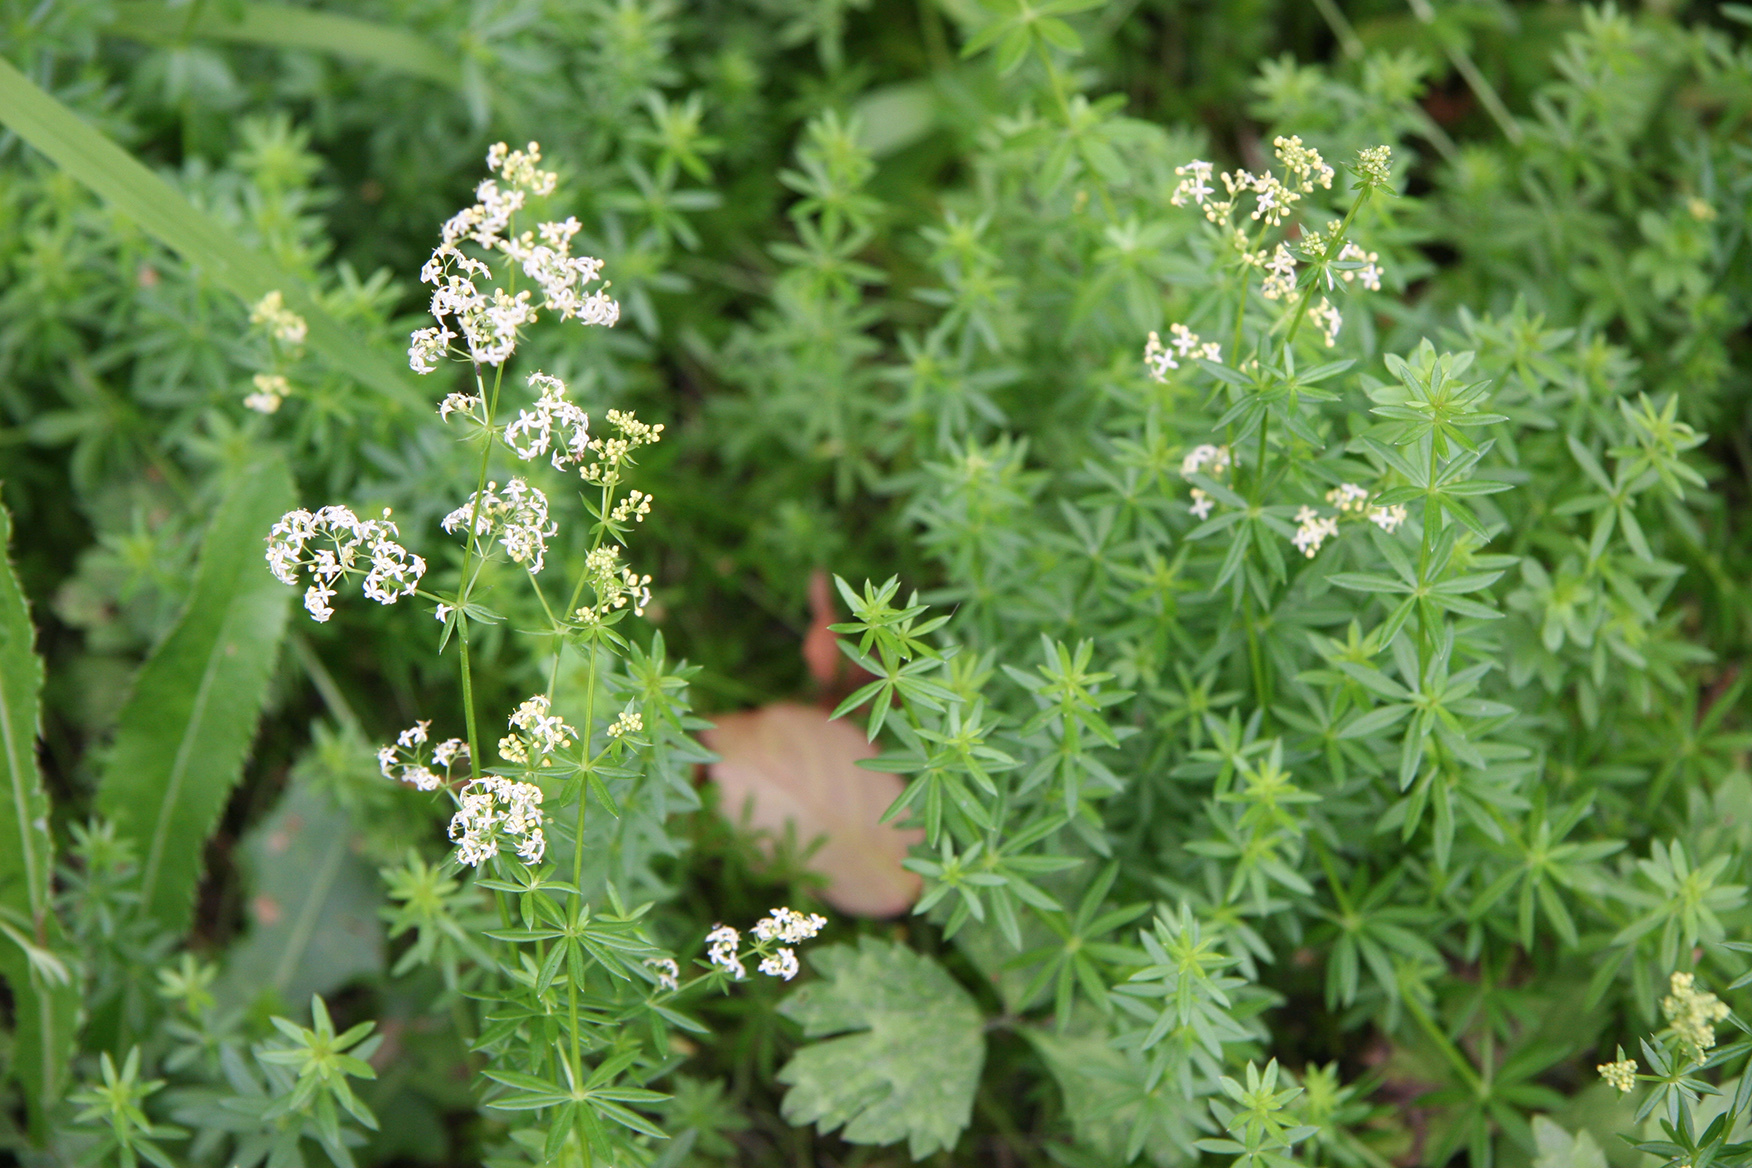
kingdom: Plantae
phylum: Tracheophyta
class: Magnoliopsida
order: Gentianales
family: Rubiaceae
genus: Galium
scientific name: Galium mollugo
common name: Hedge bedstraw
